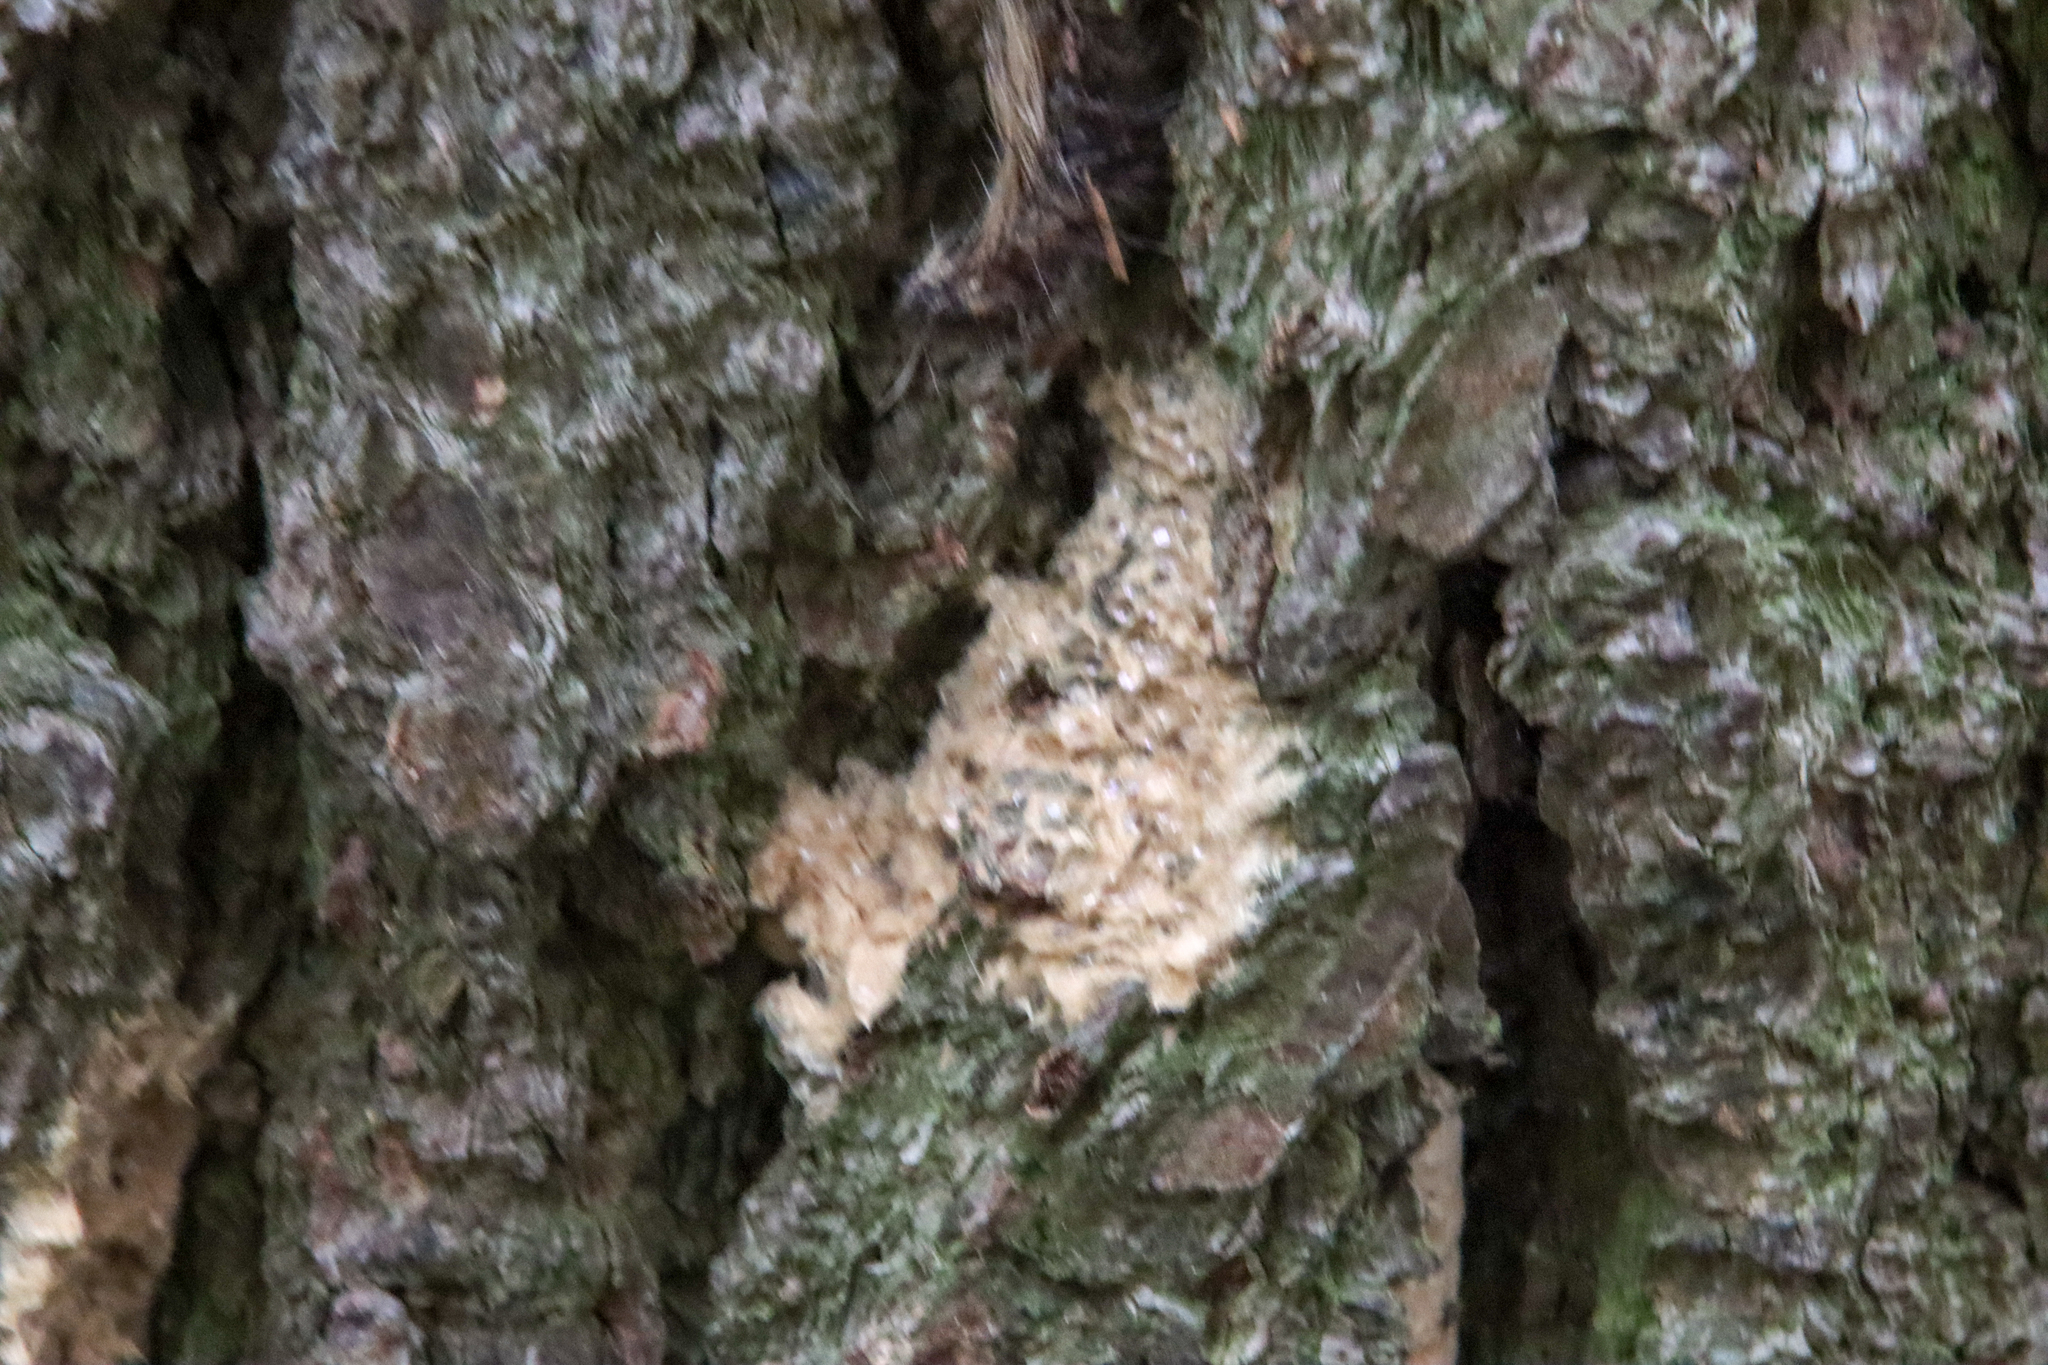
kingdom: Animalia
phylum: Arthropoda
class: Insecta
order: Lepidoptera
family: Erebidae
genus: Lymantria
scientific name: Lymantria dispar
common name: Gypsy moth
